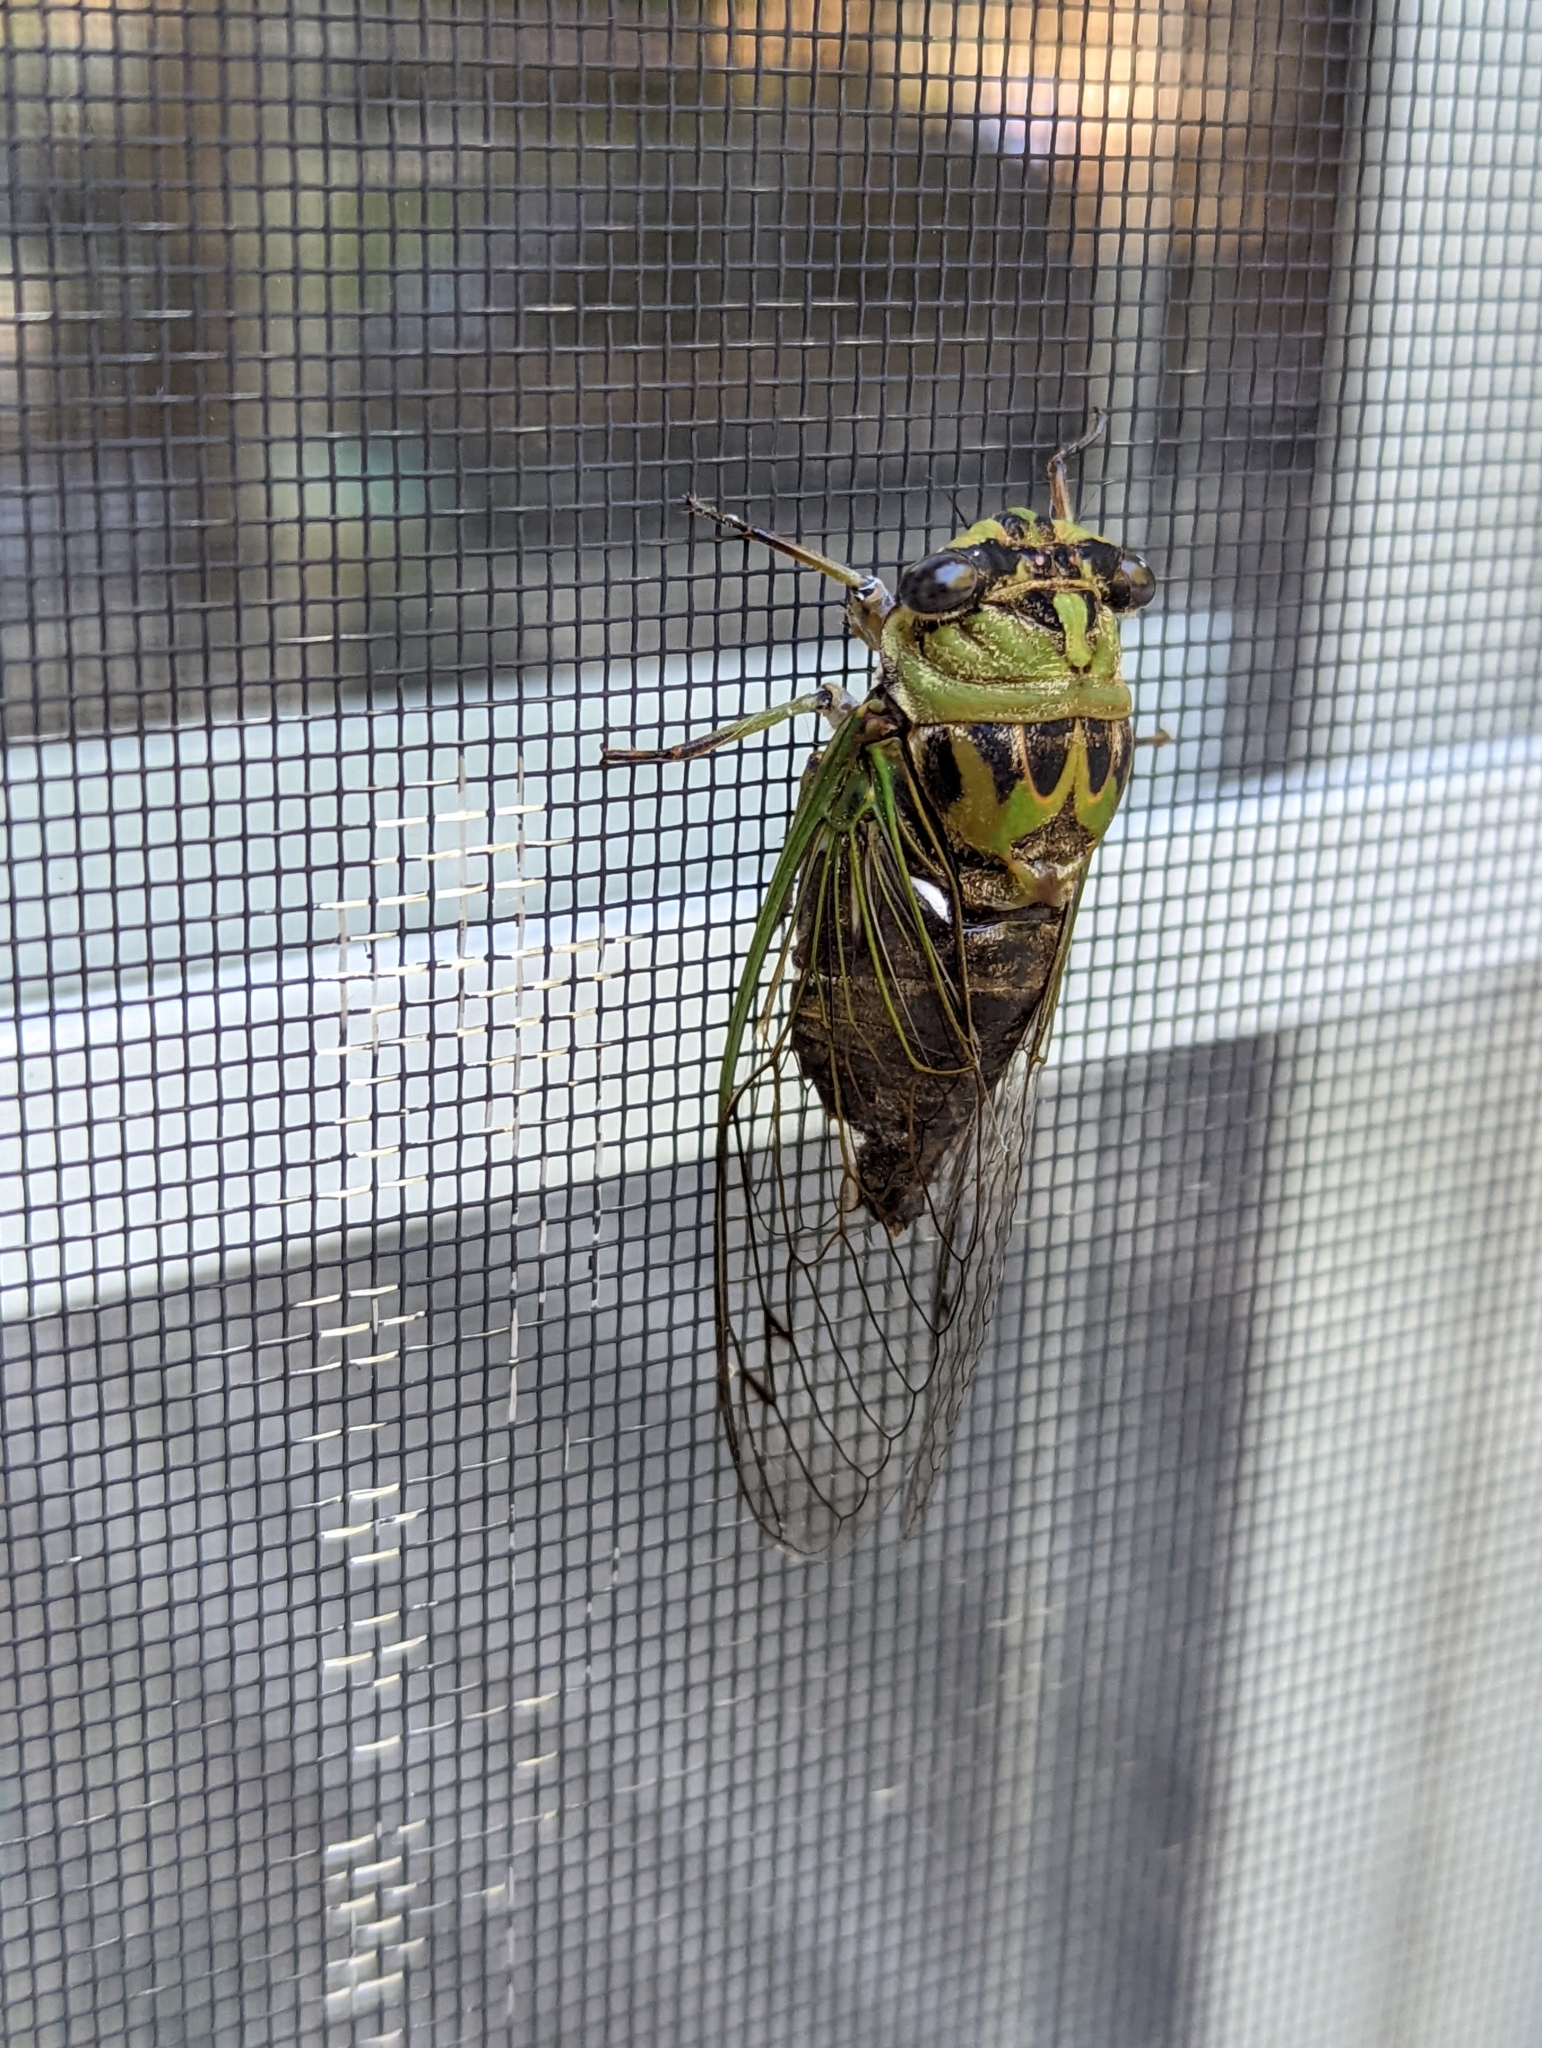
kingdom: Animalia
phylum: Arthropoda
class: Insecta
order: Hemiptera
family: Cicadidae
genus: Neotibicen
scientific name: Neotibicen winnemanna
